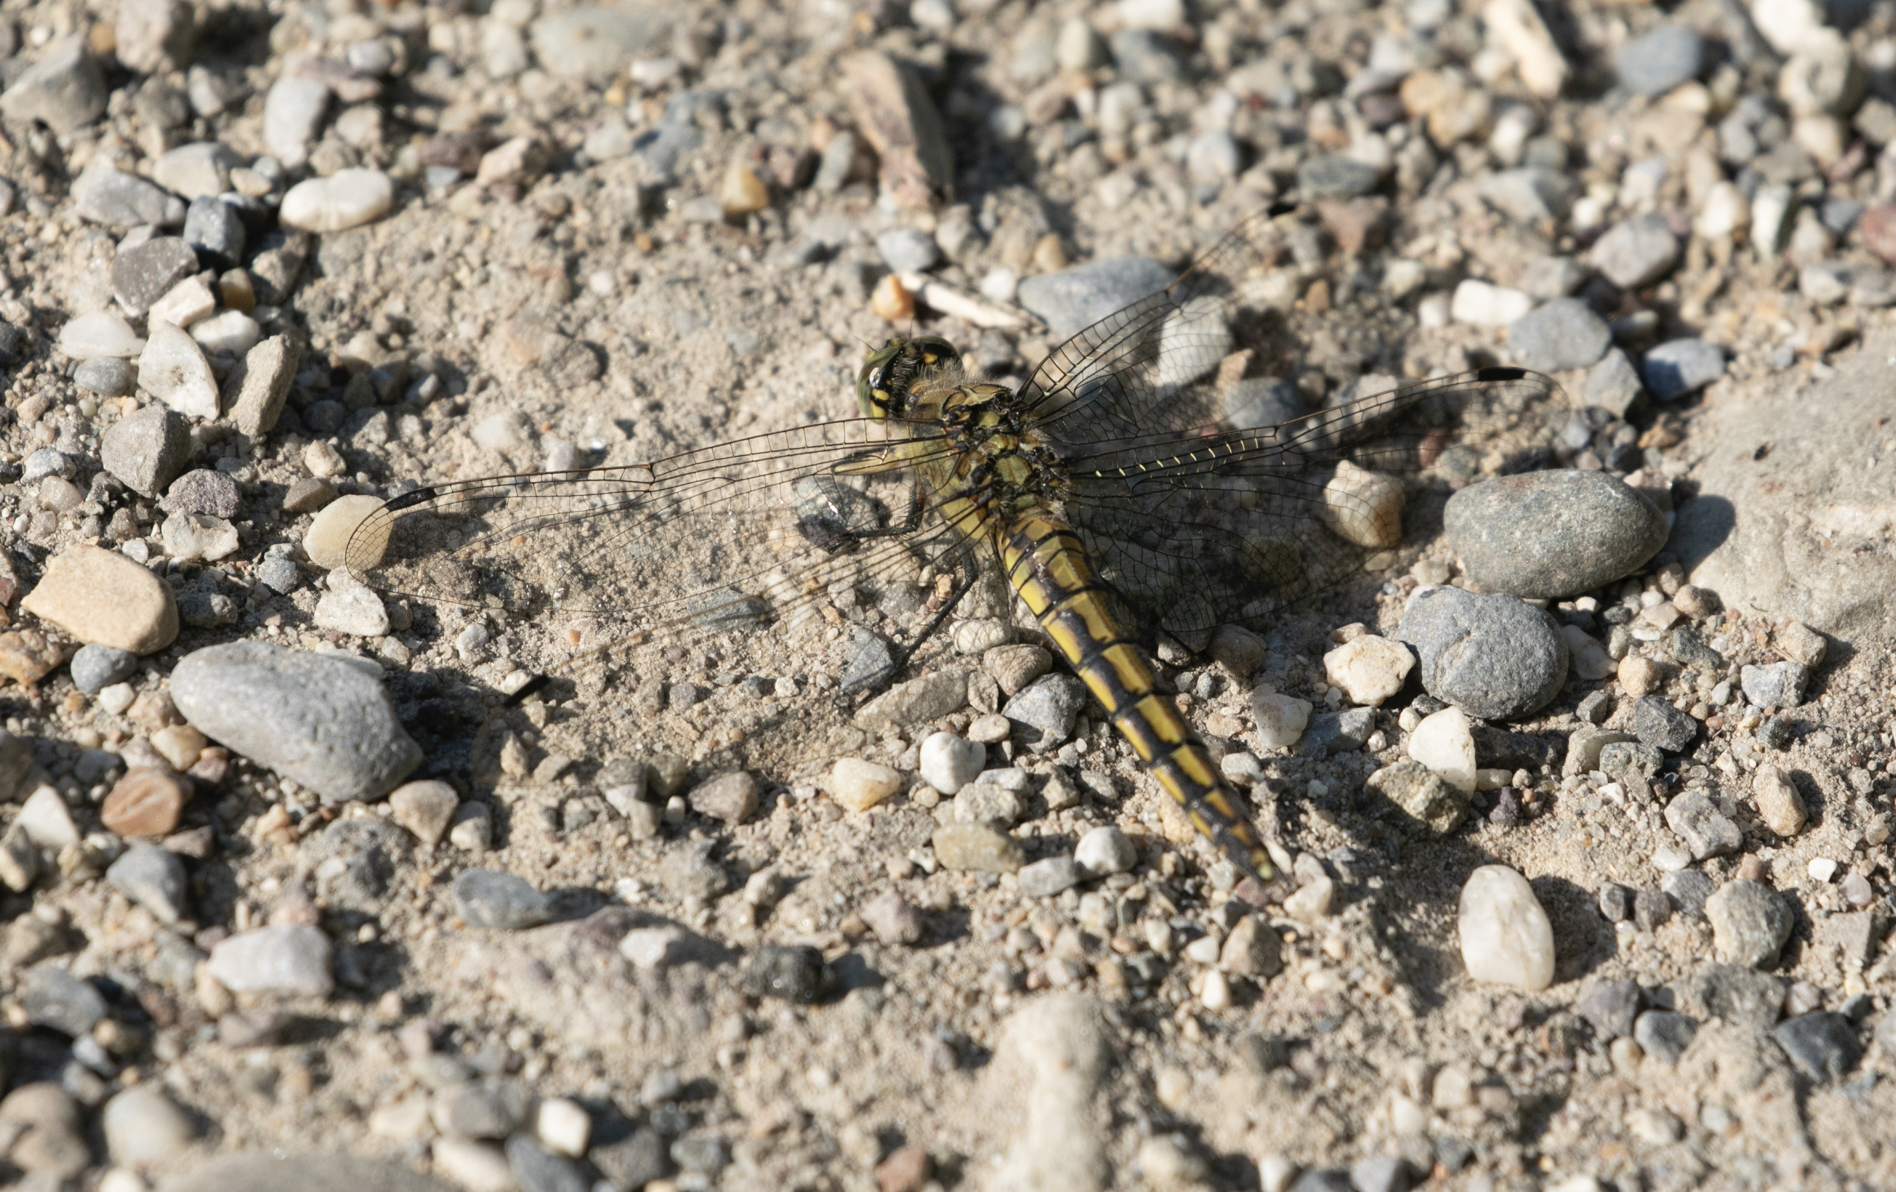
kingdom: Animalia
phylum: Arthropoda
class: Insecta
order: Odonata
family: Libellulidae
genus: Orthetrum
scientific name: Orthetrum cancellatum
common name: Black-tailed skimmer
